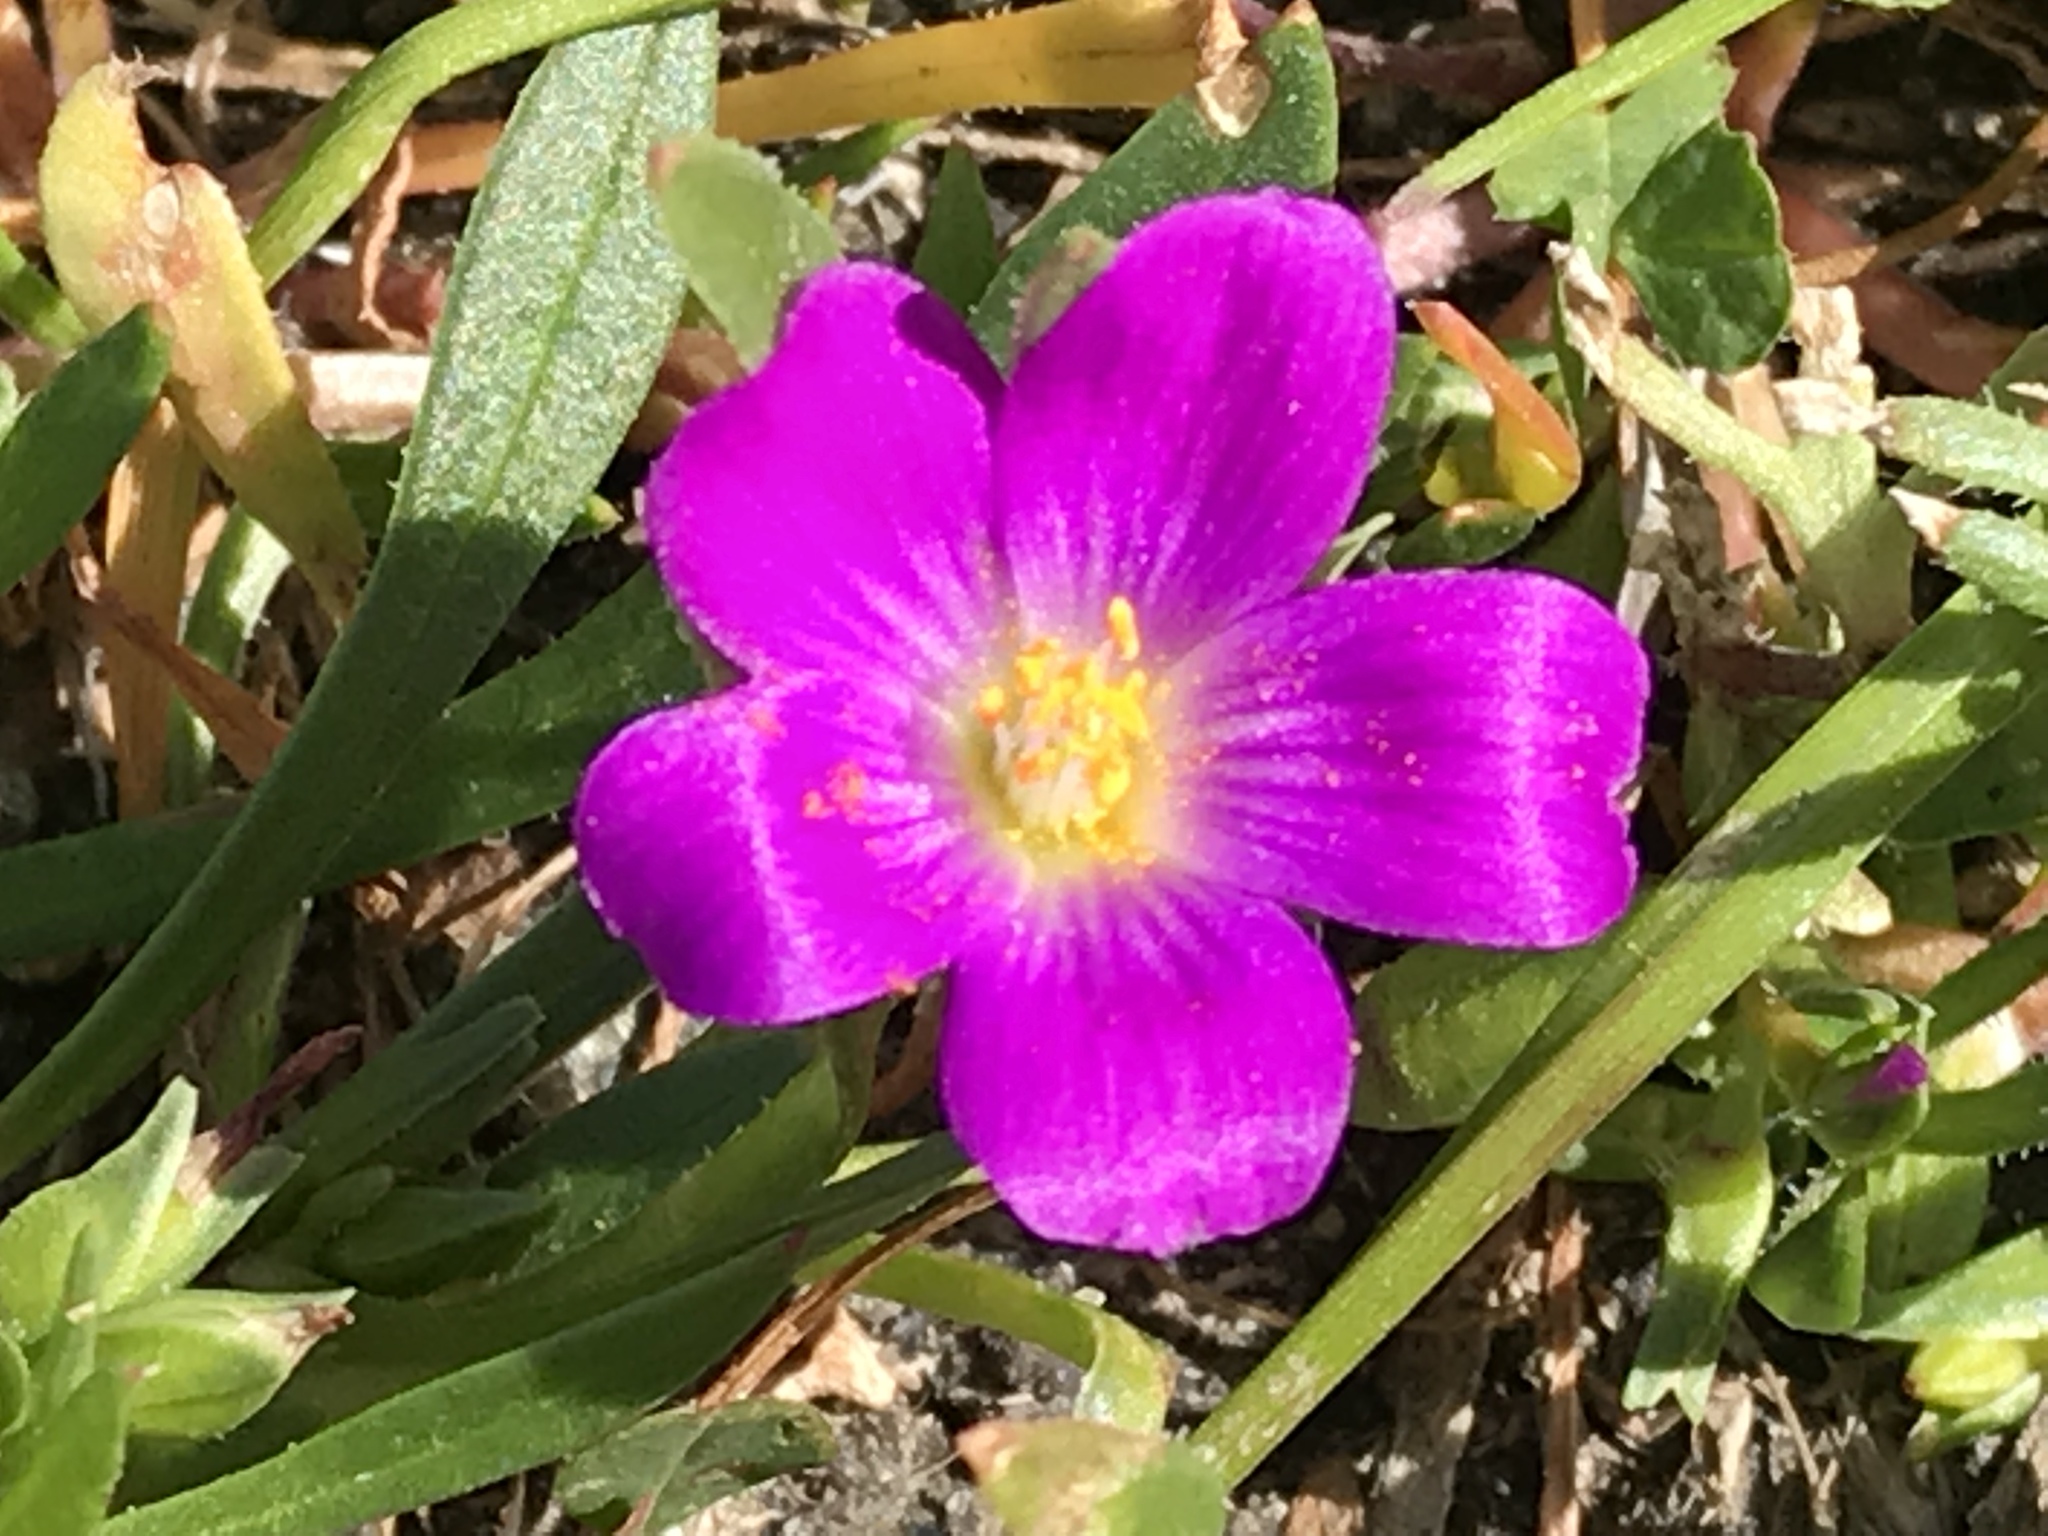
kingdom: Plantae
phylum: Tracheophyta
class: Magnoliopsida
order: Caryophyllales
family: Montiaceae
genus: Calandrinia
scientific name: Calandrinia menziesii
